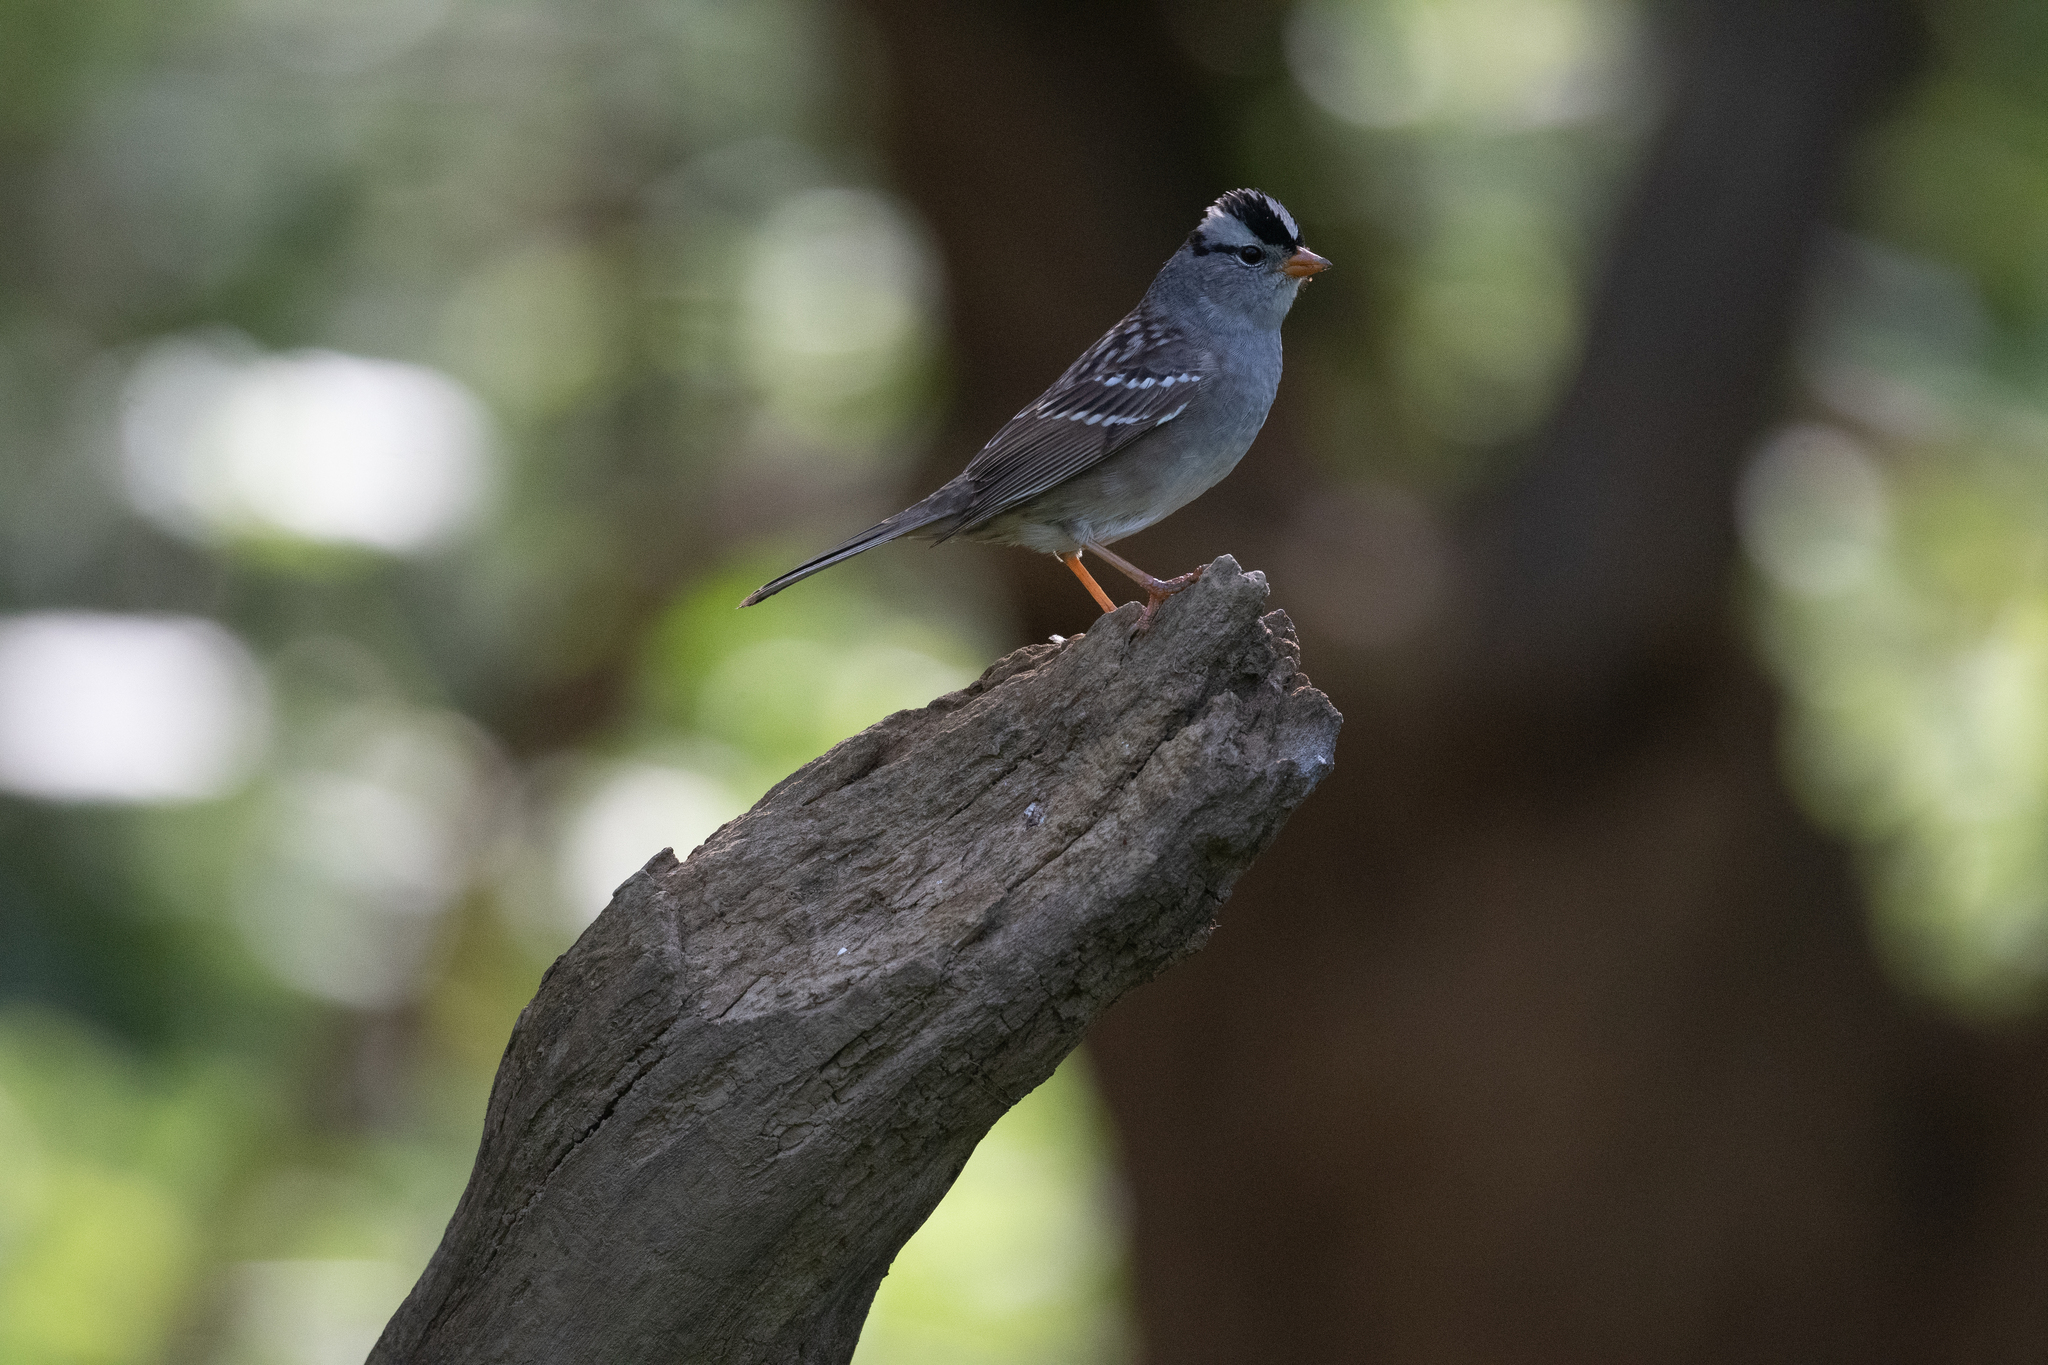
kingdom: Animalia
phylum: Chordata
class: Aves
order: Passeriformes
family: Passerellidae
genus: Zonotrichia
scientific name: Zonotrichia leucophrys
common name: White-crowned sparrow
